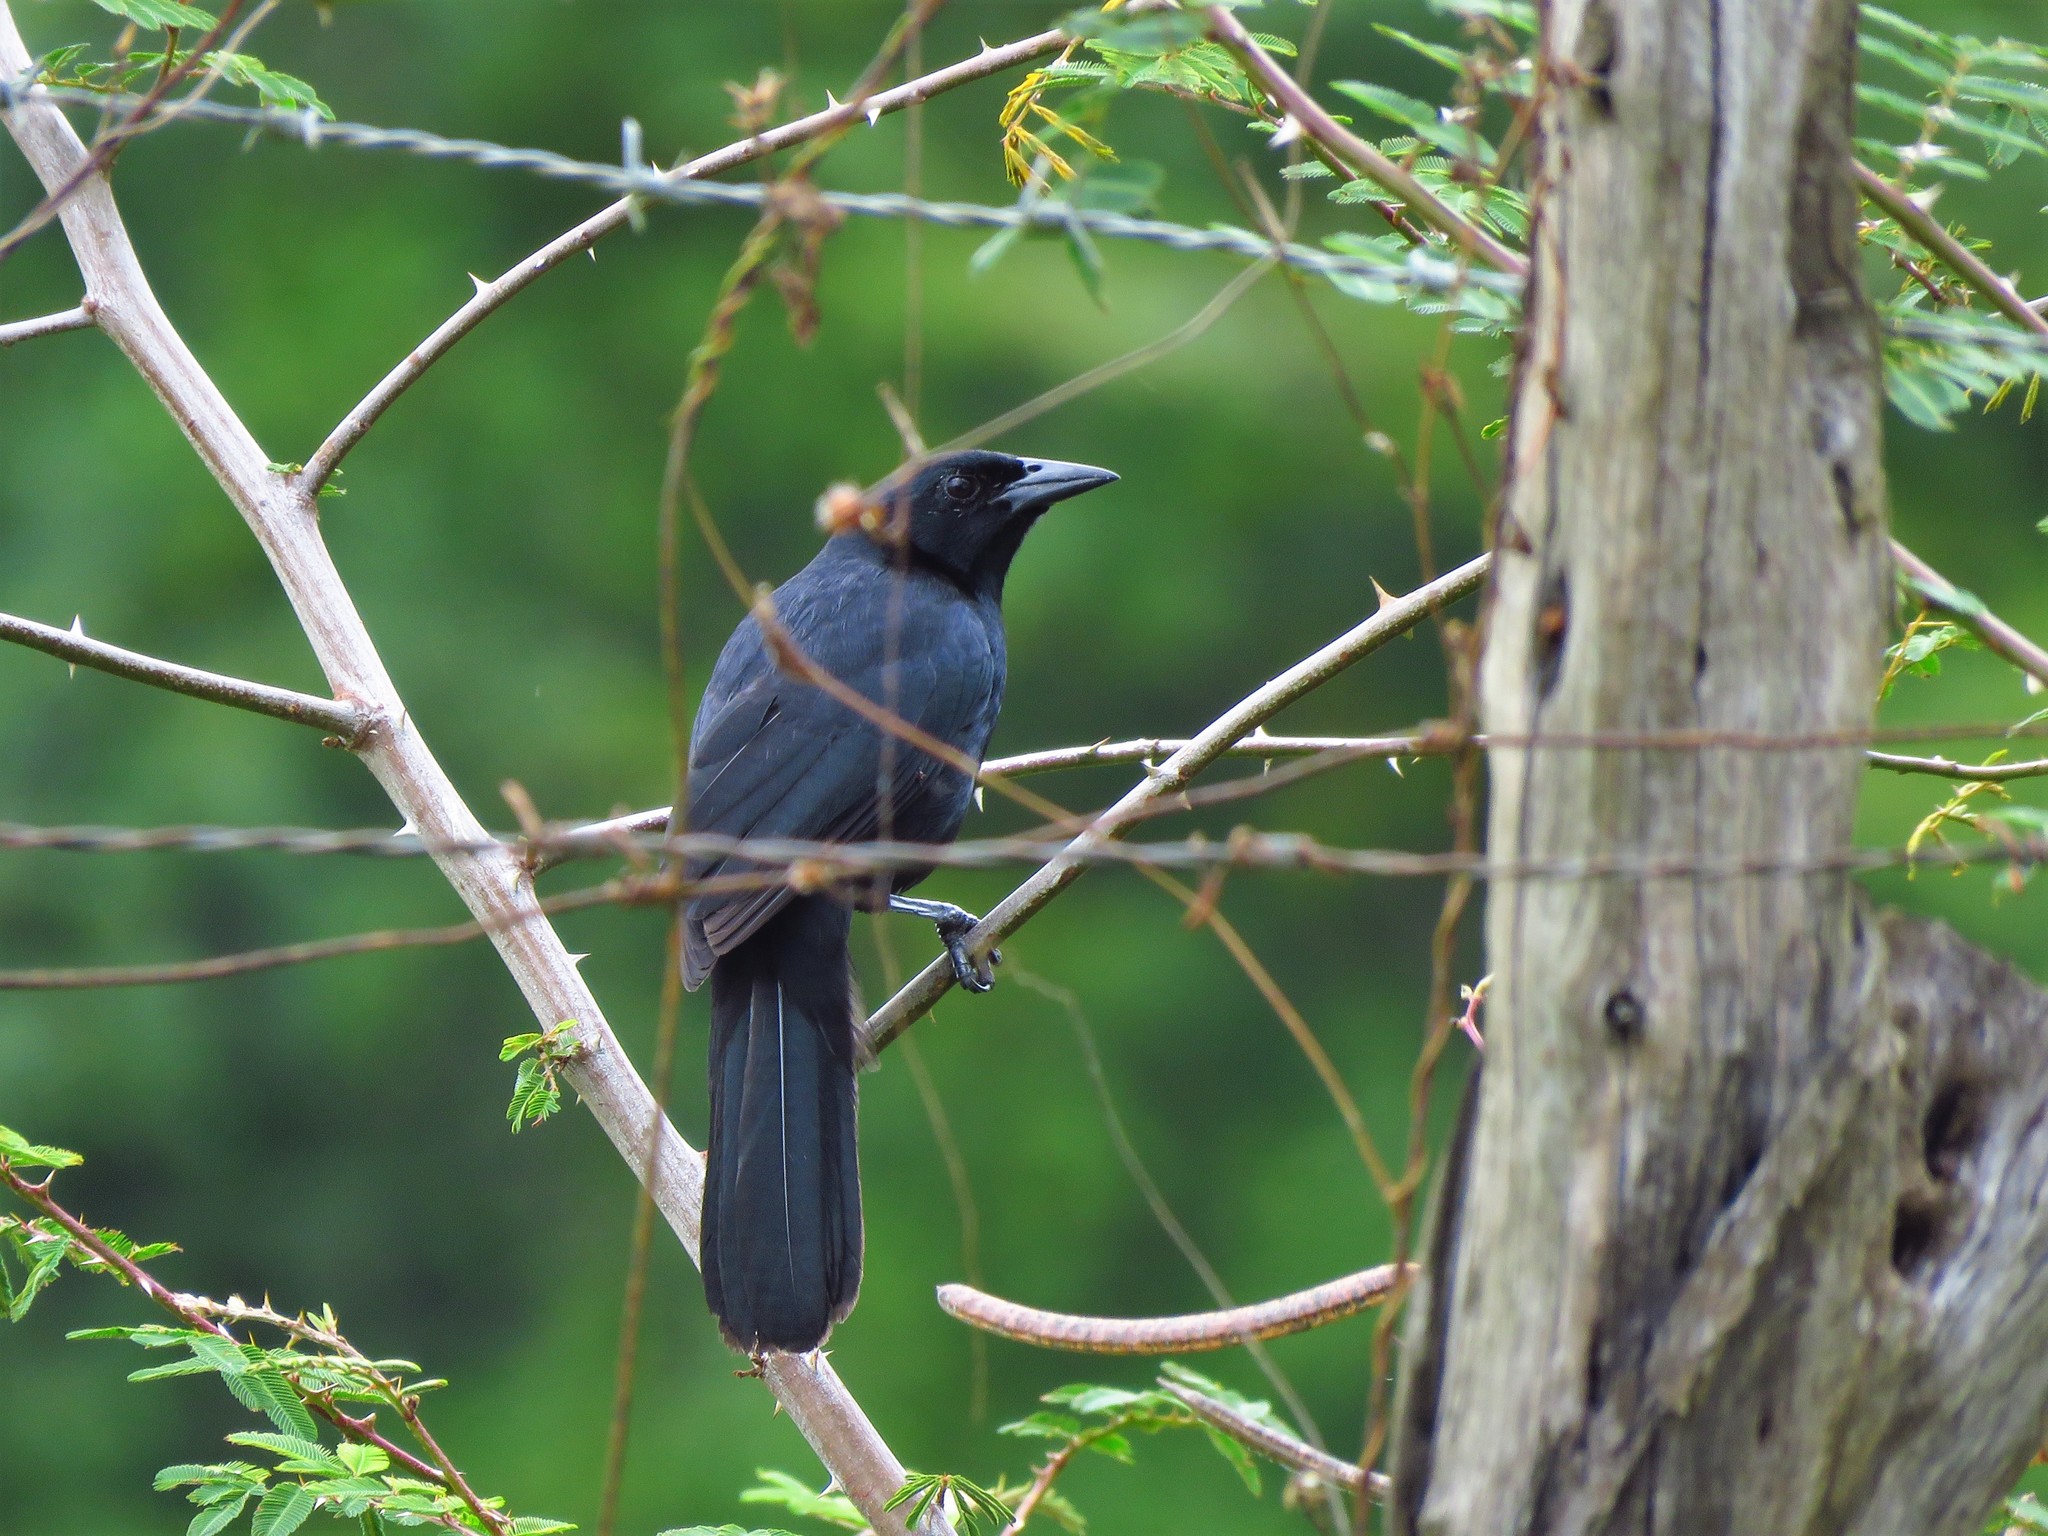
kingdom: Animalia
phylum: Chordata
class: Aves
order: Passeriformes
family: Icteridae
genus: Dives
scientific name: Dives dives
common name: Melodious blackbird
